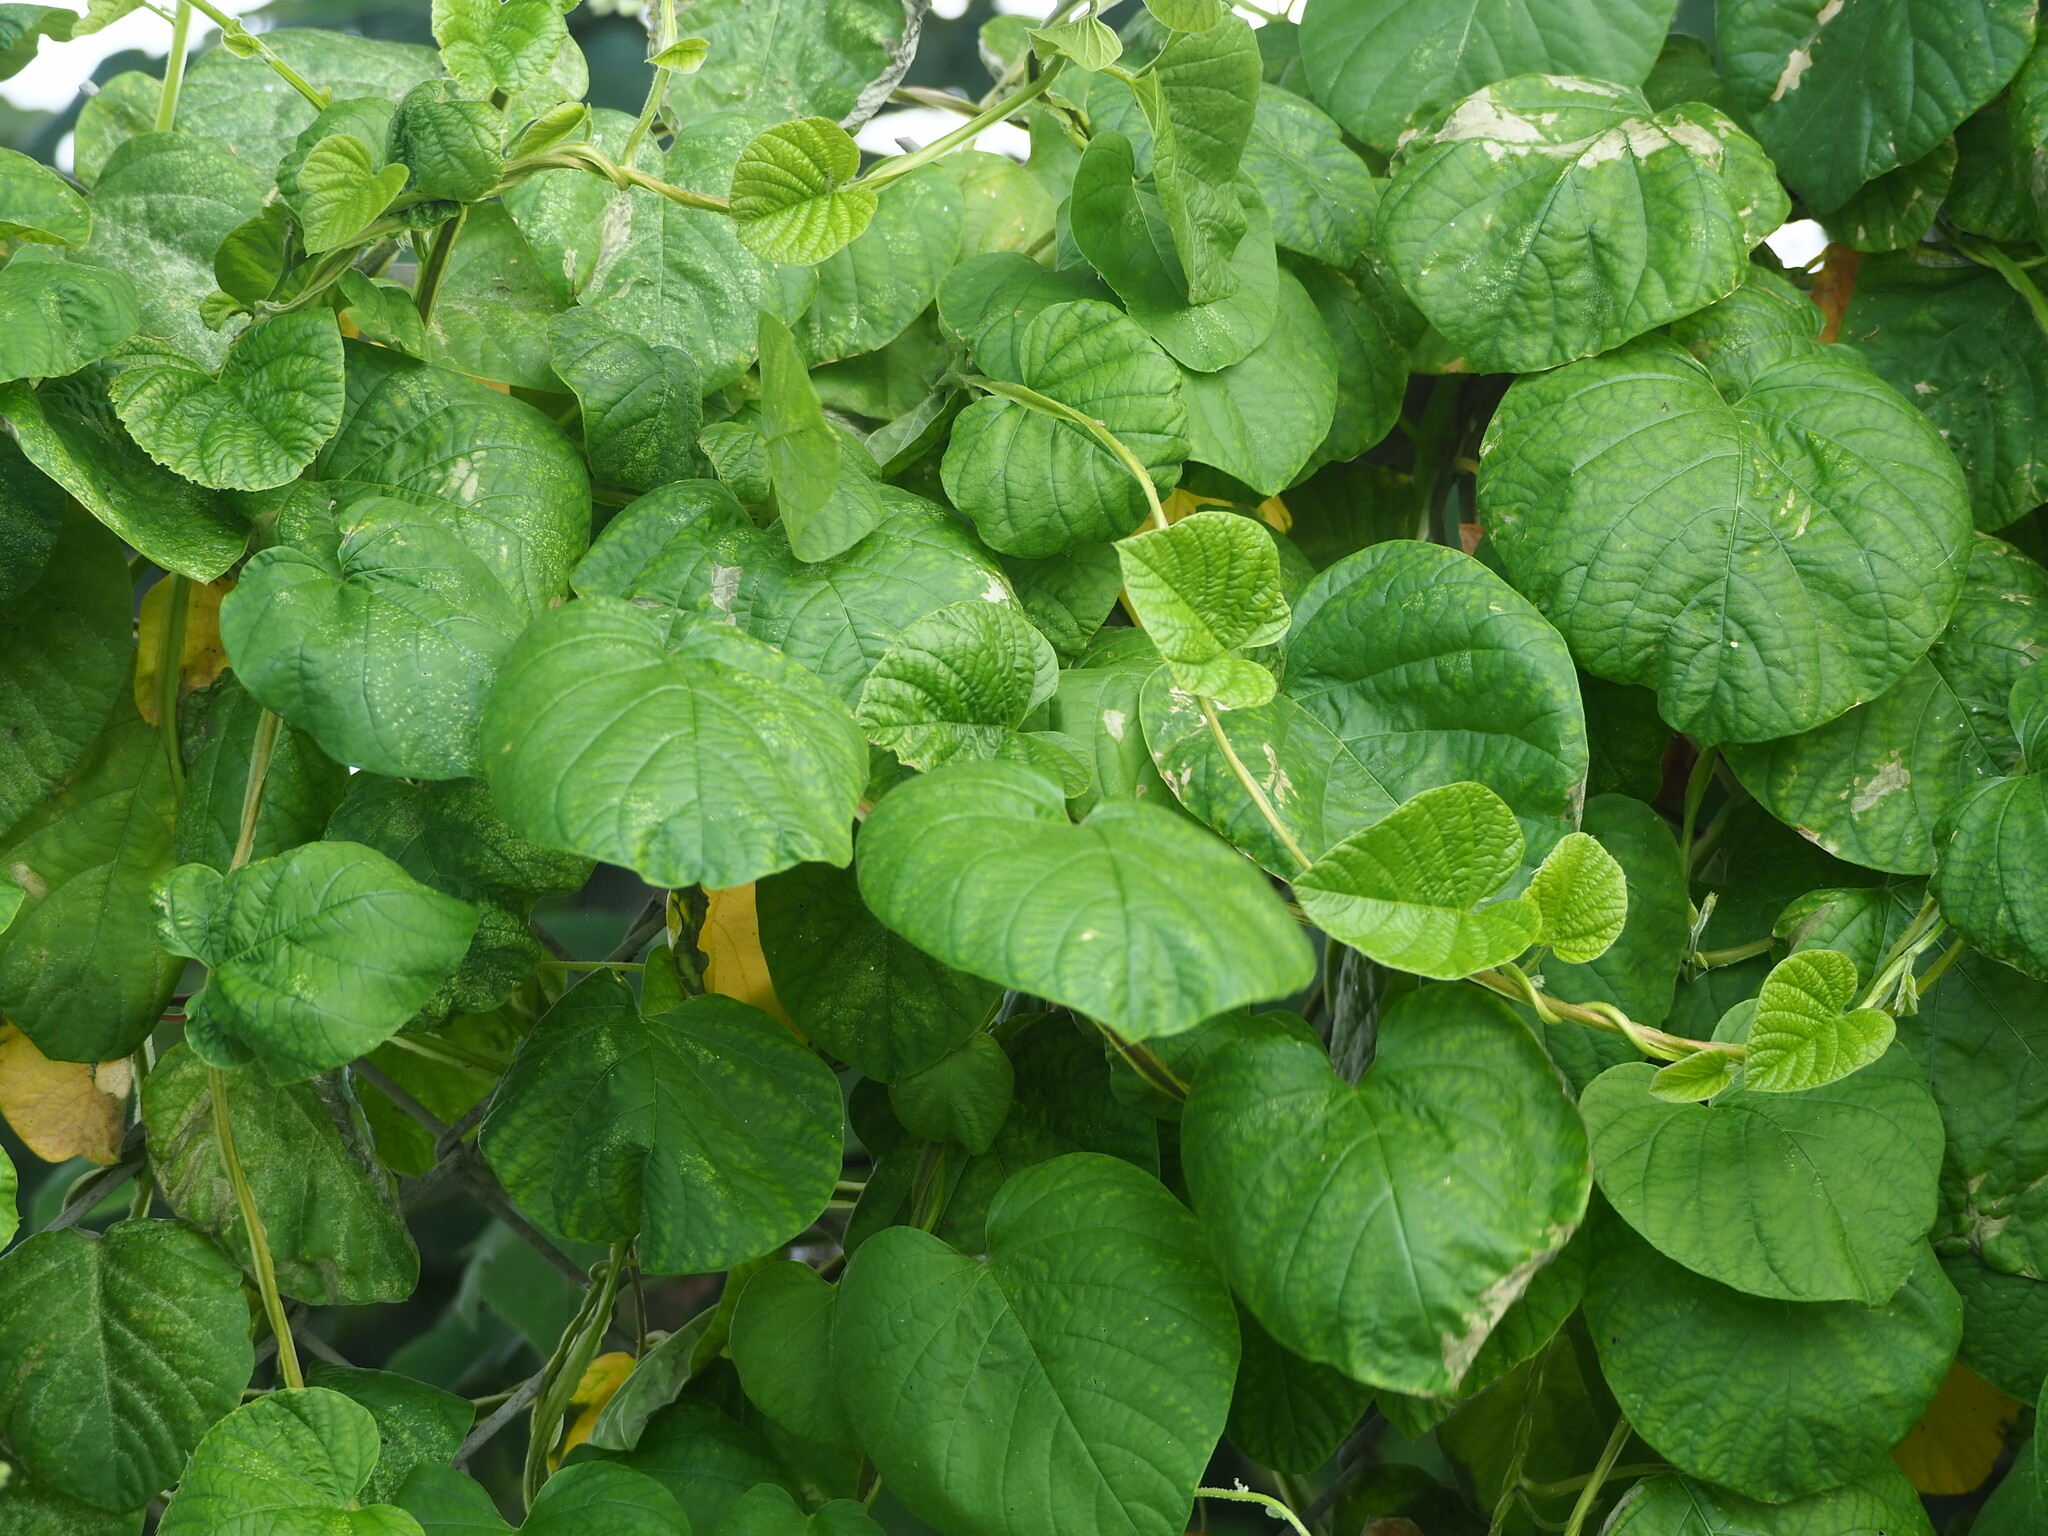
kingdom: Plantae
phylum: Tracheophyta
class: Magnoliopsida
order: Solanales
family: Convolvulaceae
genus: Operculina
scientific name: Operculina turpethum
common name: Transparent wood-rose
